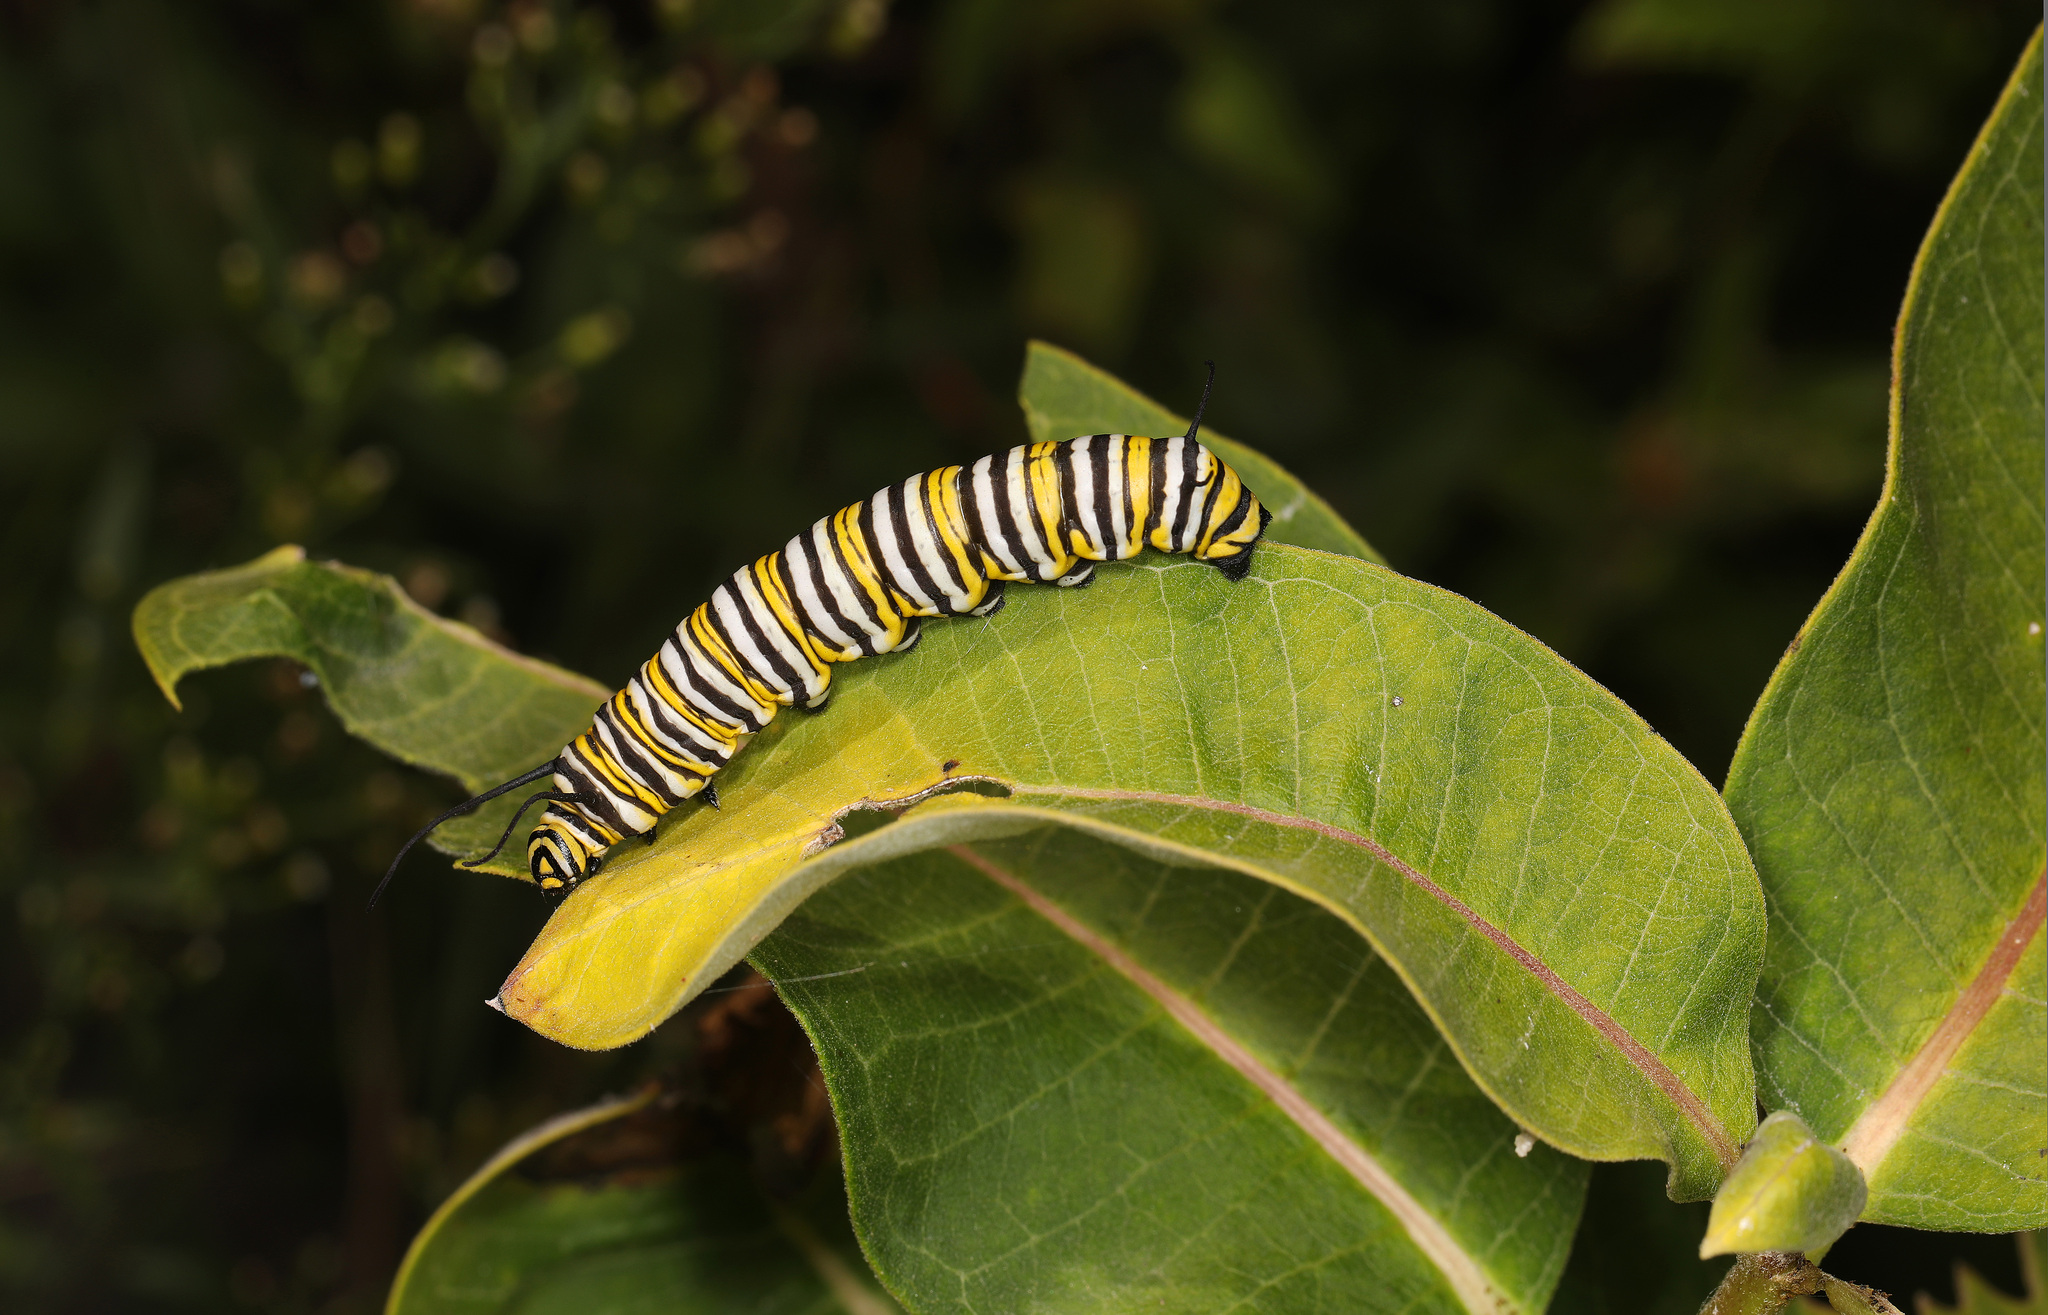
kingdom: Animalia
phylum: Arthropoda
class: Insecta
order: Lepidoptera
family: Nymphalidae
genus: Danaus
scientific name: Danaus plexippus
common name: Monarch
